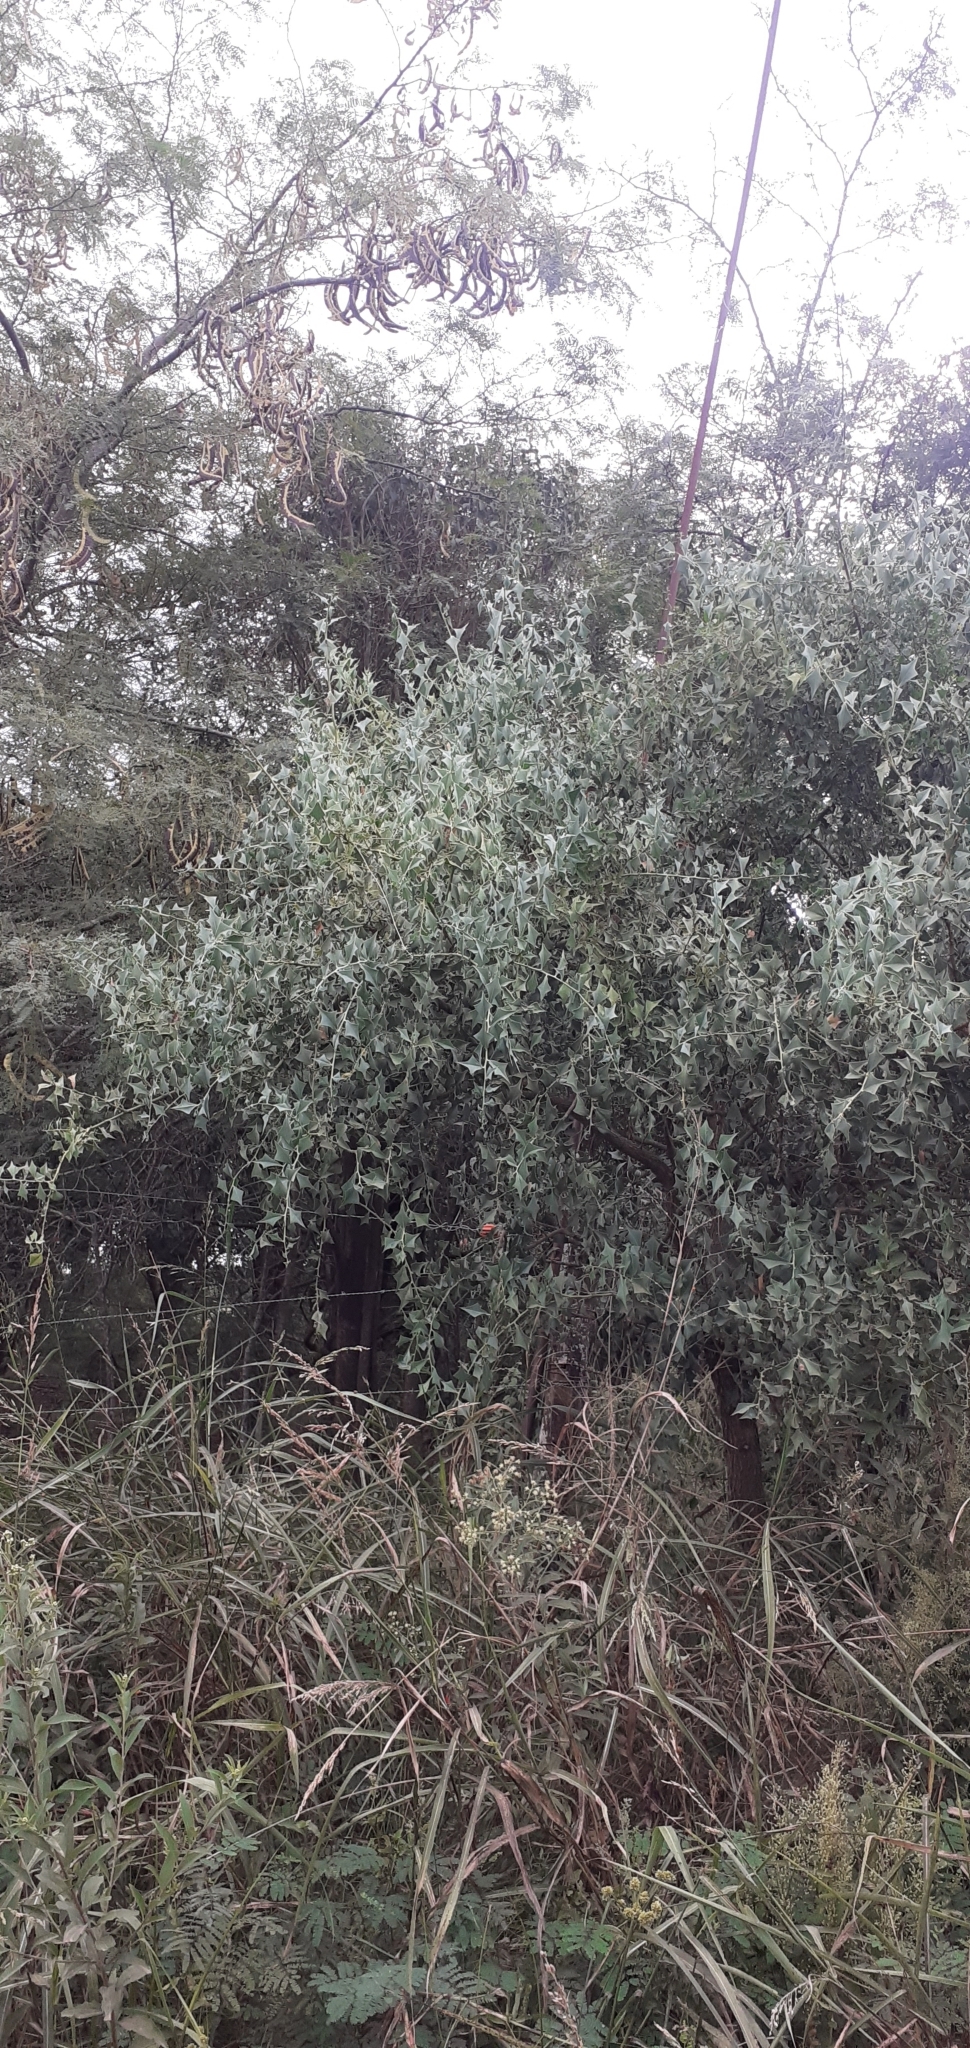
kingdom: Plantae
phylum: Tracheophyta
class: Magnoliopsida
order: Santalales
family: Cervantesiaceae
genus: Jodina
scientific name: Jodina rhombifolia
